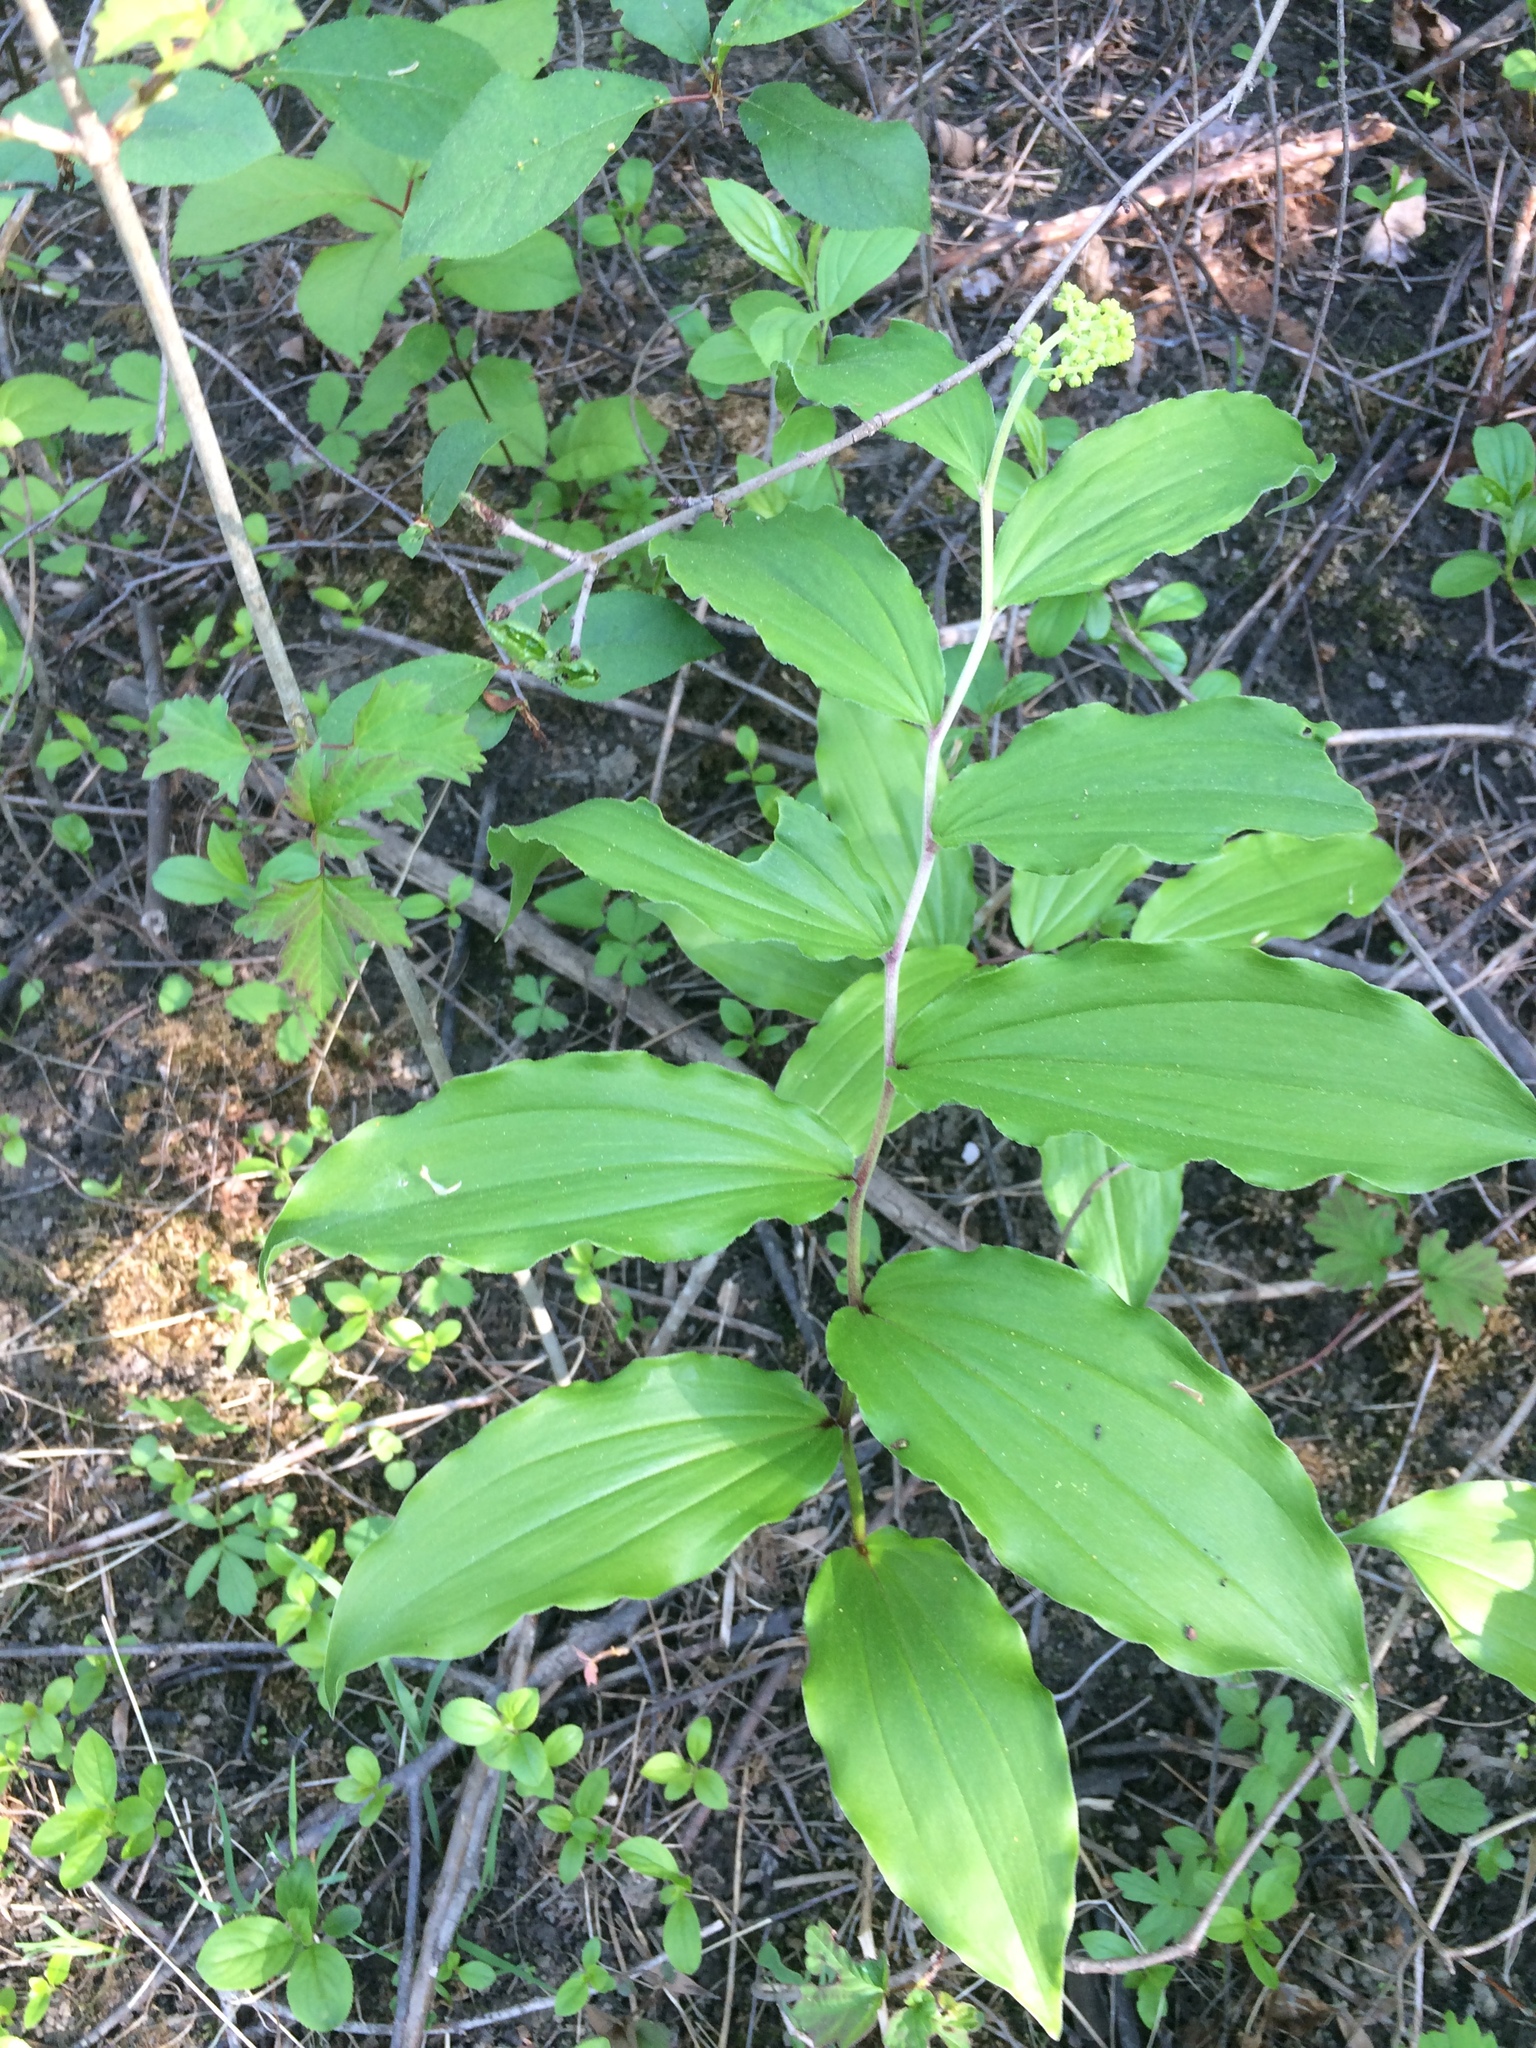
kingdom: Plantae
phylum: Tracheophyta
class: Liliopsida
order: Asparagales
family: Asparagaceae
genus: Maianthemum
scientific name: Maianthemum racemosum
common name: False spikenard
